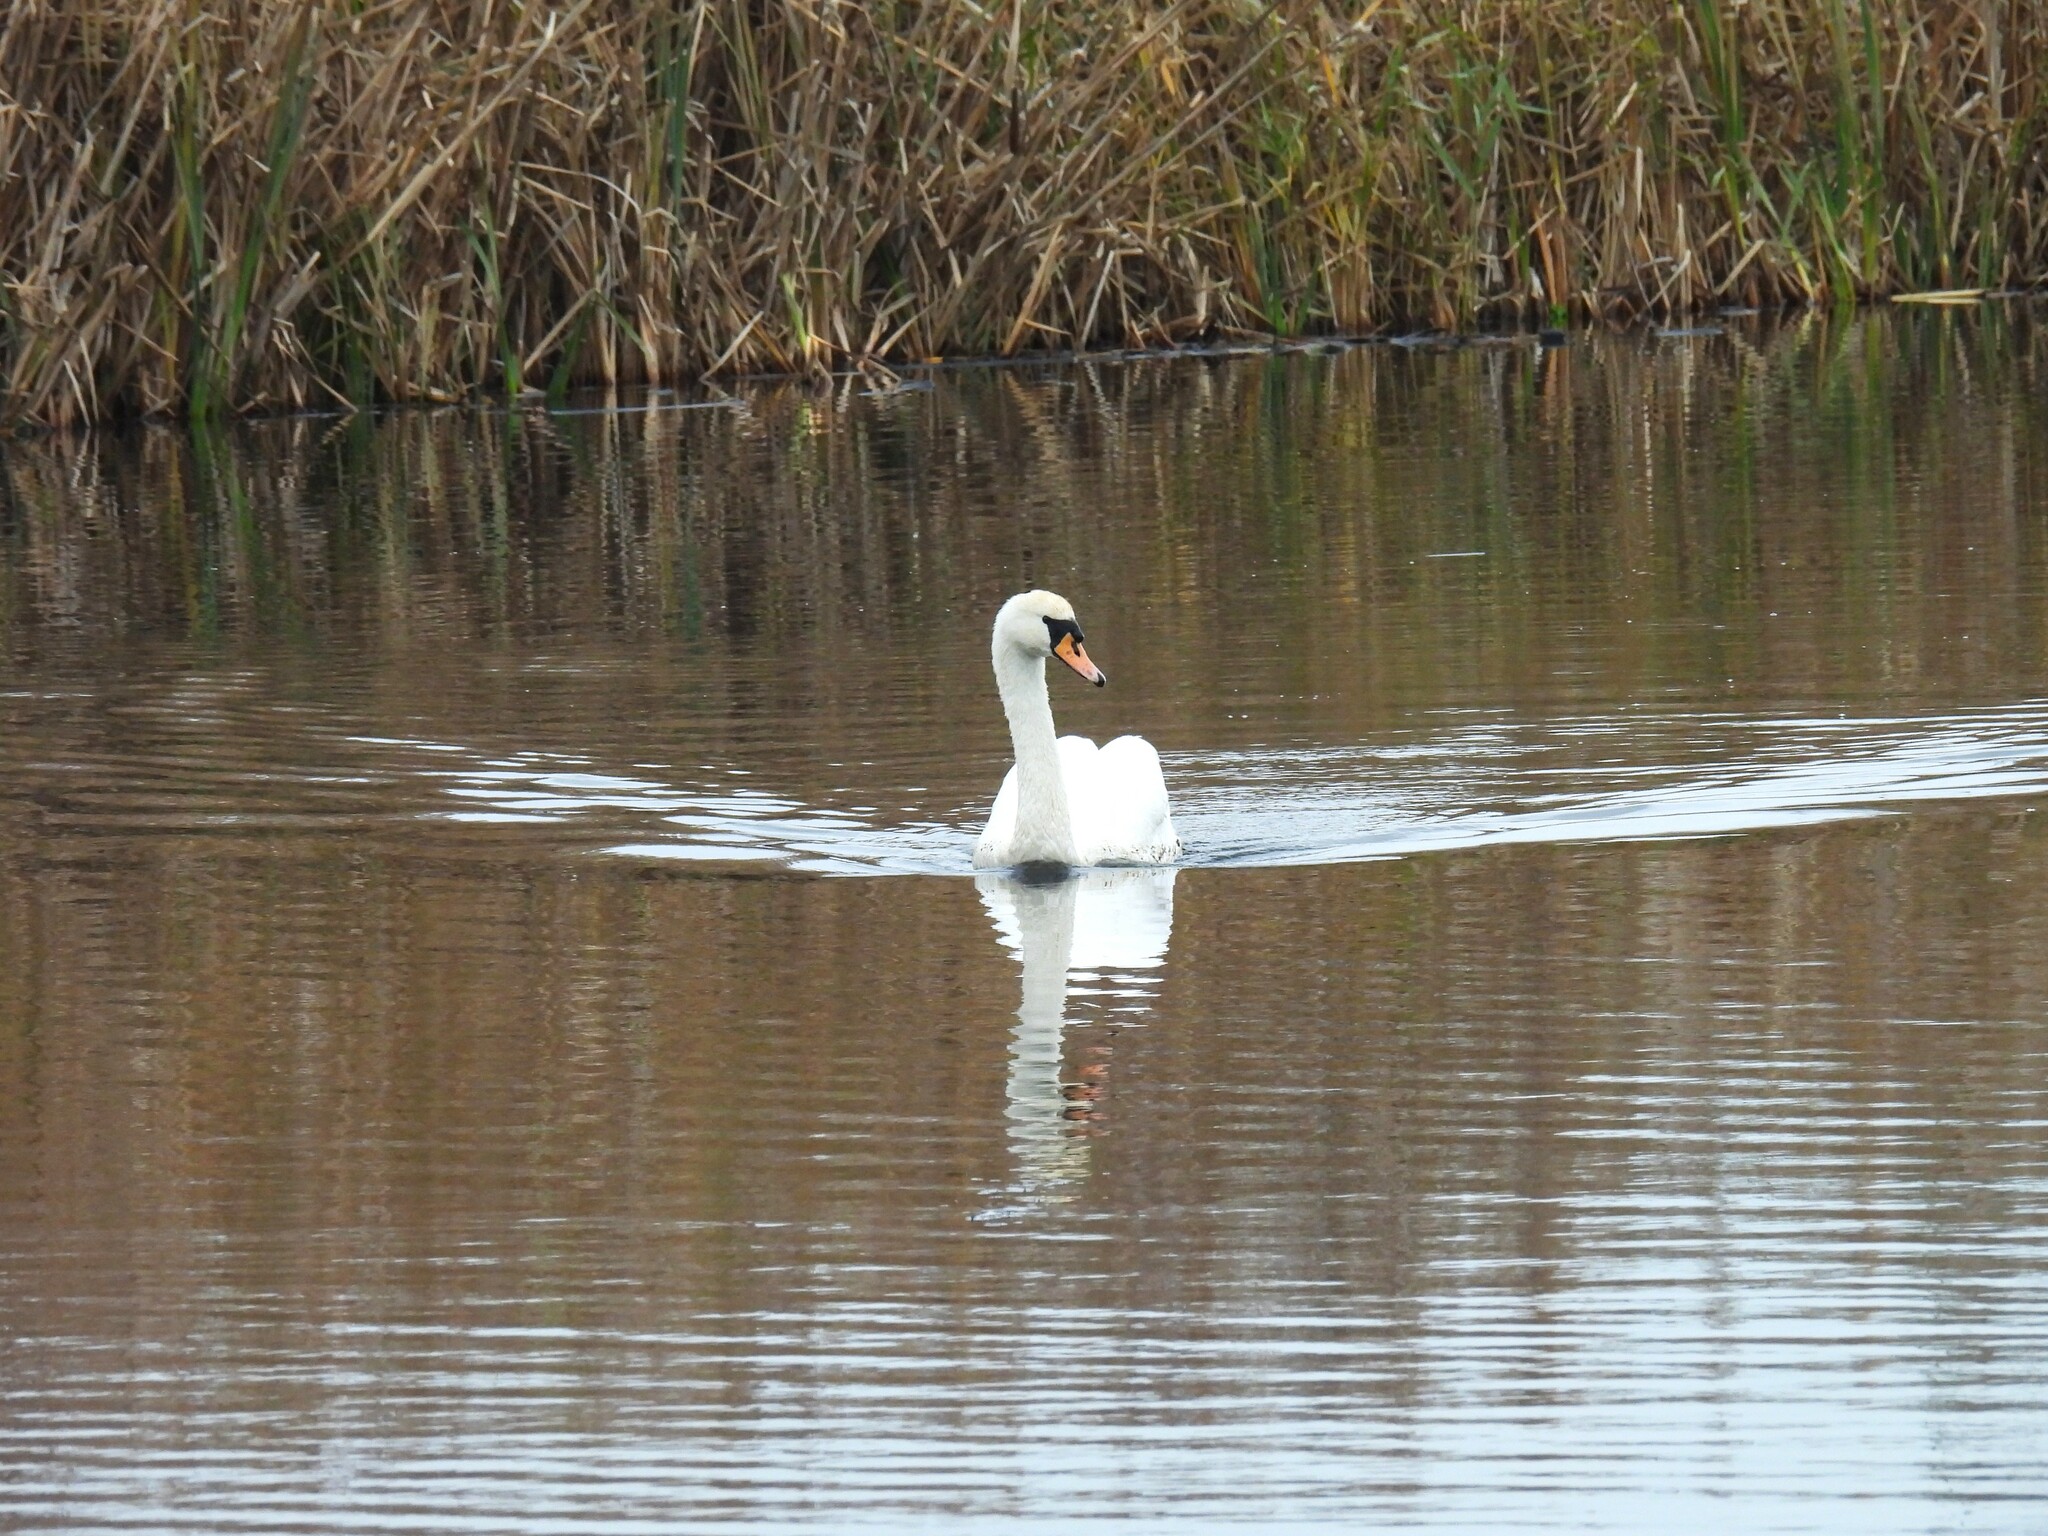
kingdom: Animalia
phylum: Chordata
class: Aves
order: Anseriformes
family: Anatidae
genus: Cygnus
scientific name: Cygnus olor
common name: Mute swan
